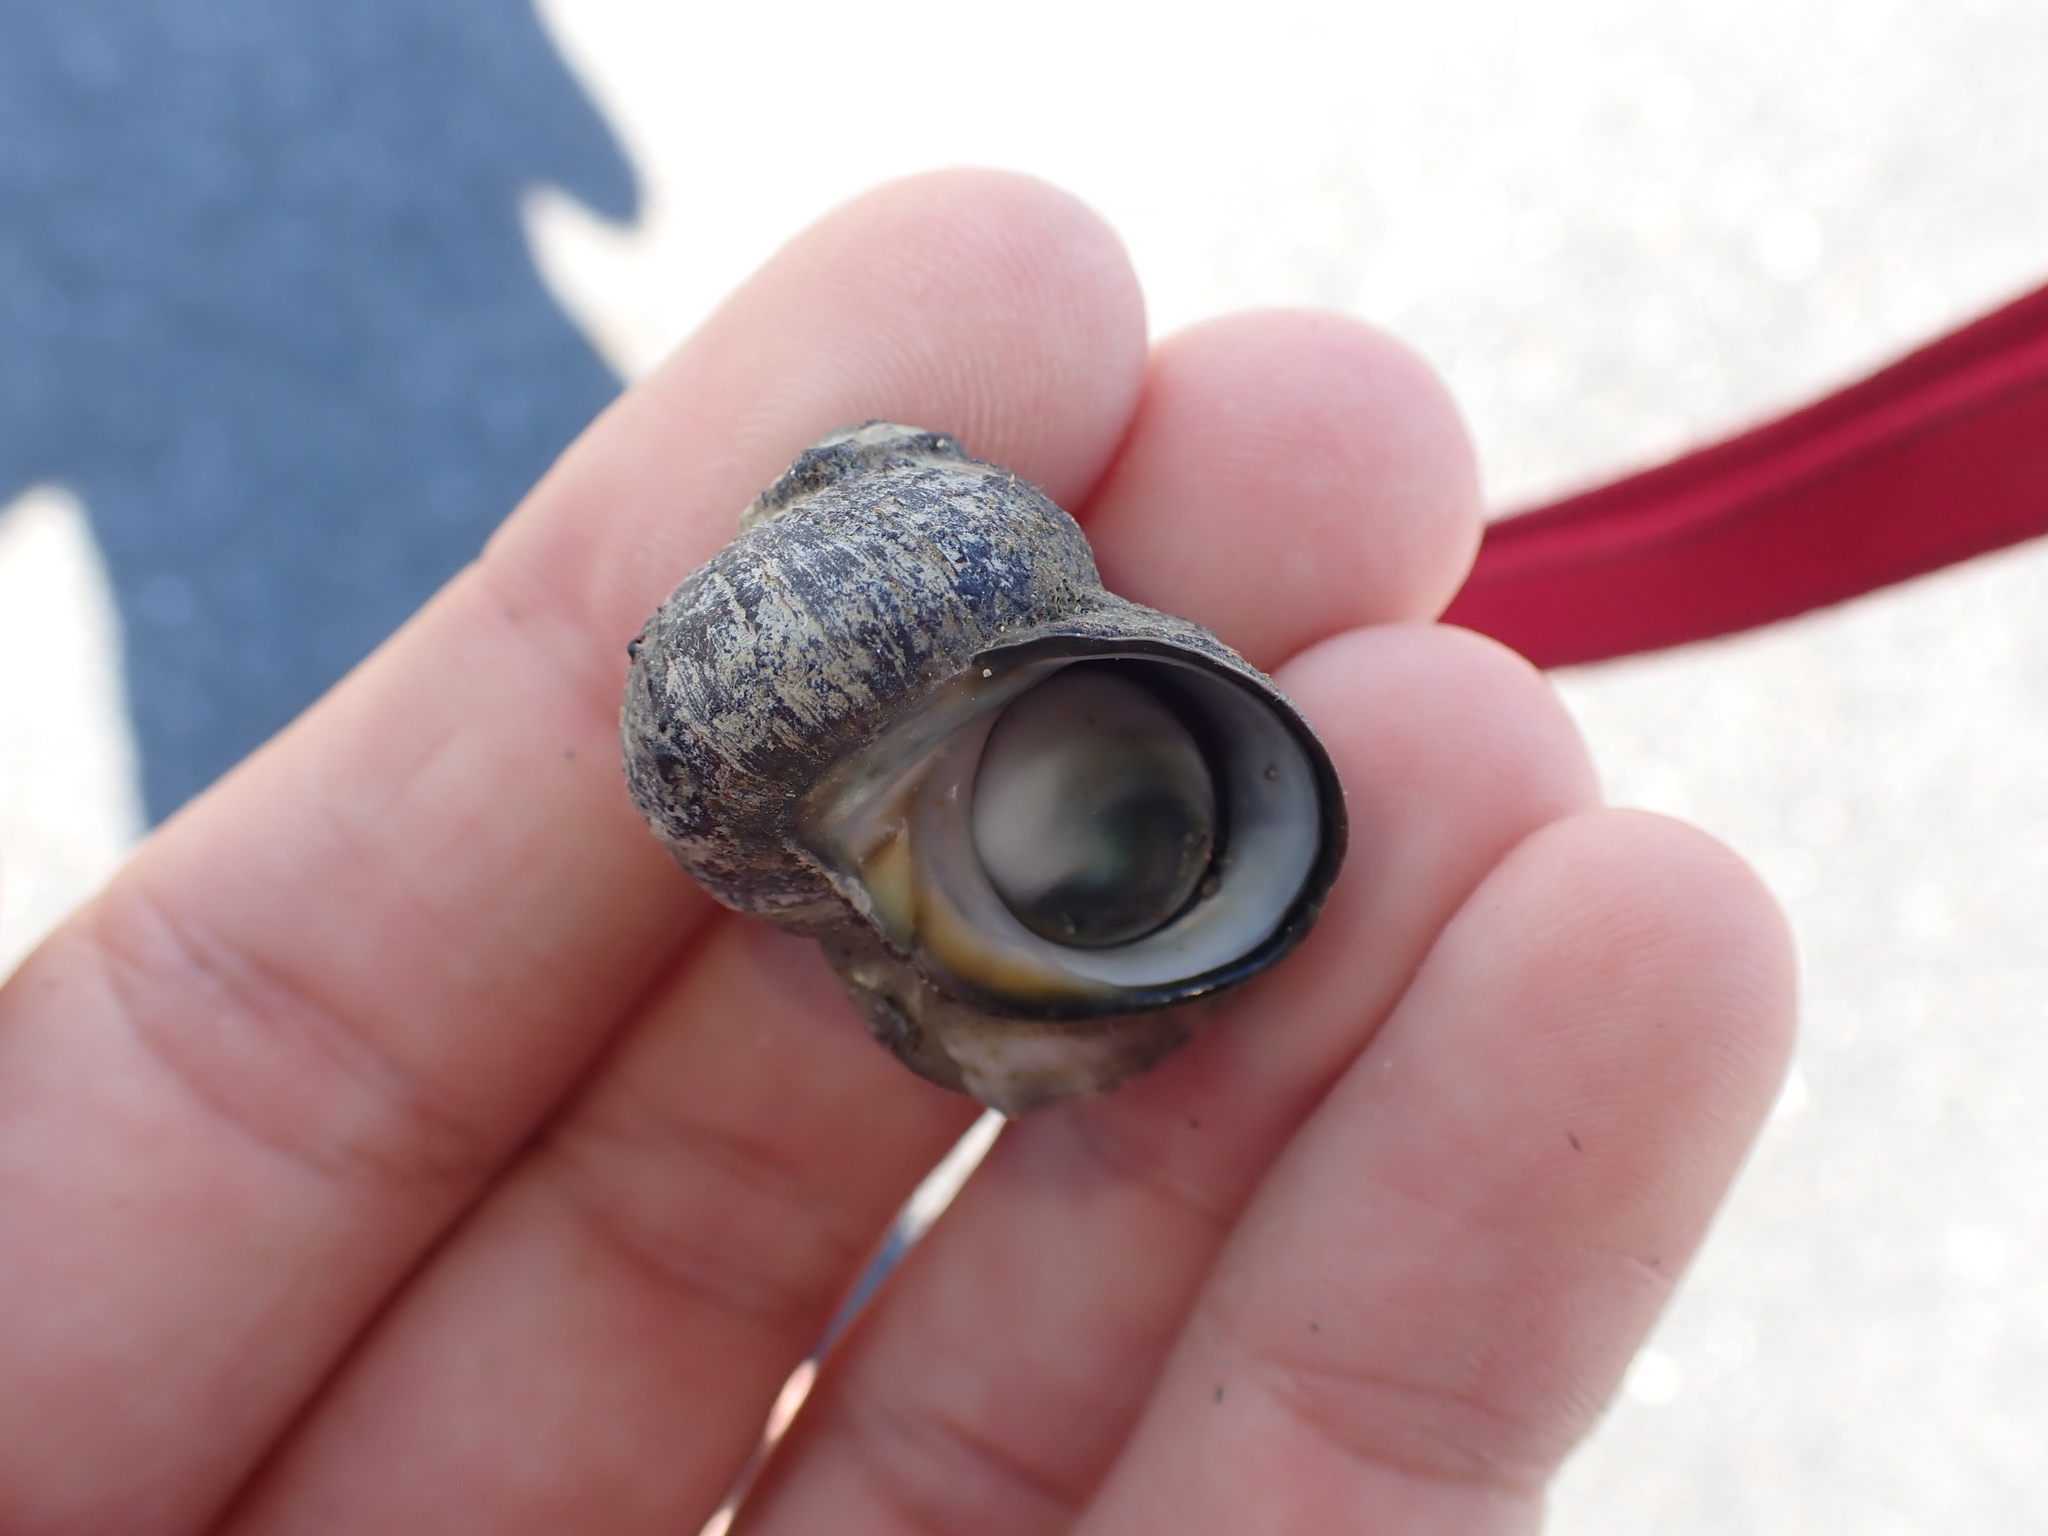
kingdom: Animalia
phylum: Mollusca
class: Gastropoda
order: Trochida
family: Turbinidae
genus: Lunella
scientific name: Lunella smaragda
